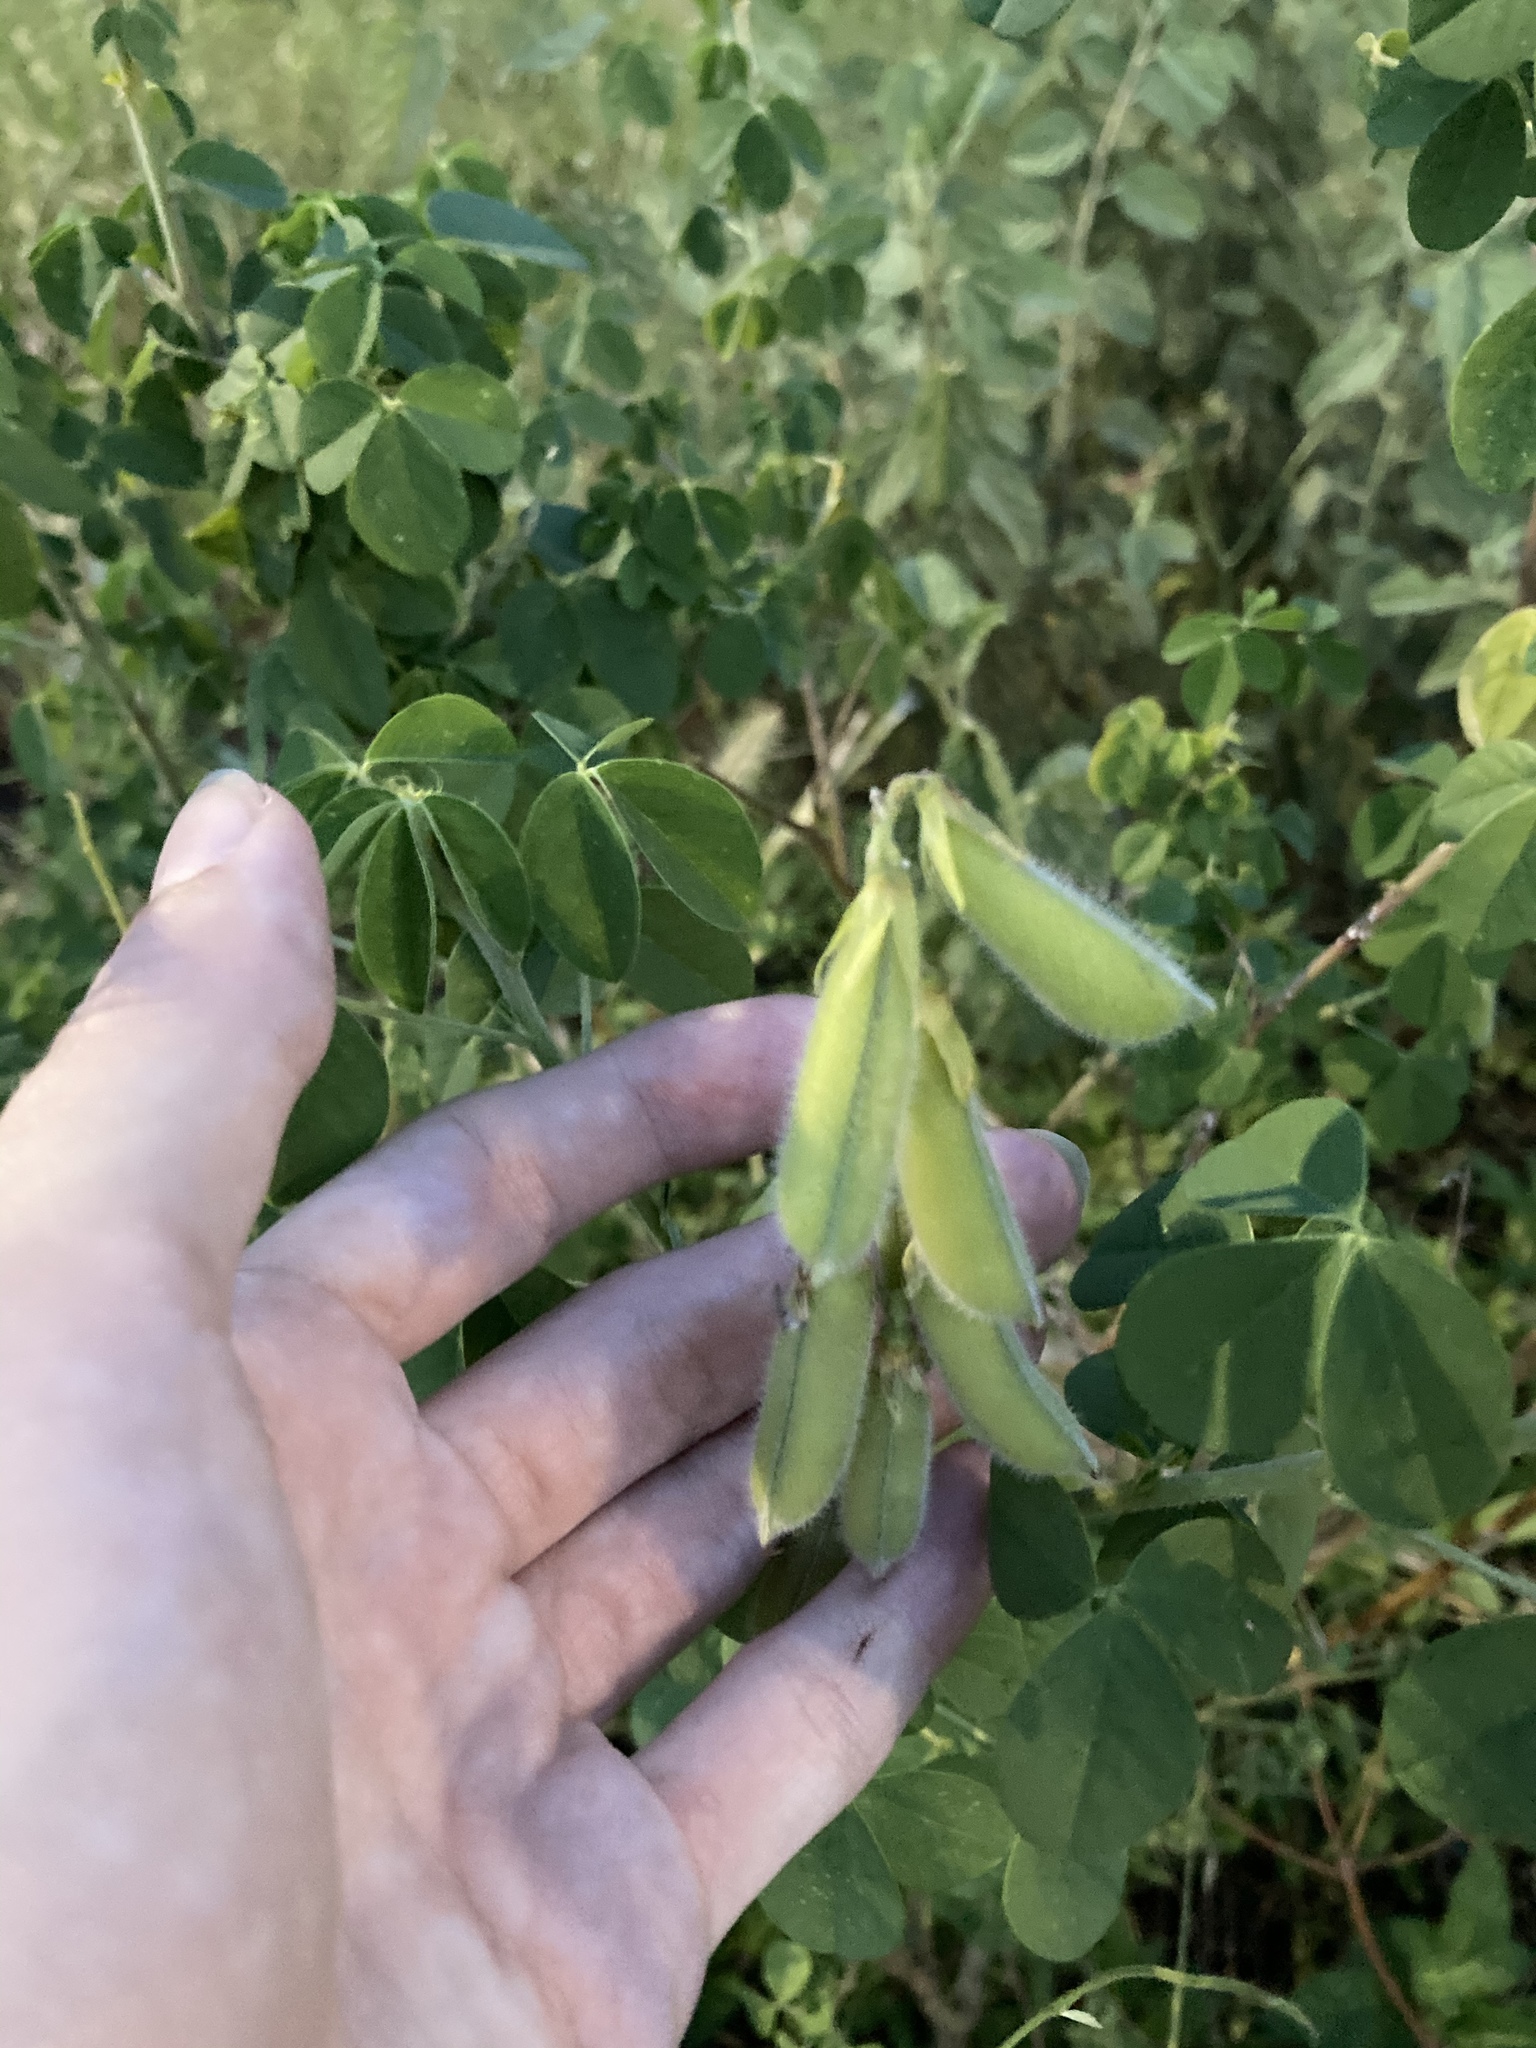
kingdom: Plantae
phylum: Tracheophyta
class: Magnoliopsida
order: Fabales
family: Fabaceae
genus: Crotalaria
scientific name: Crotalaria incana
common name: Shakeshake
